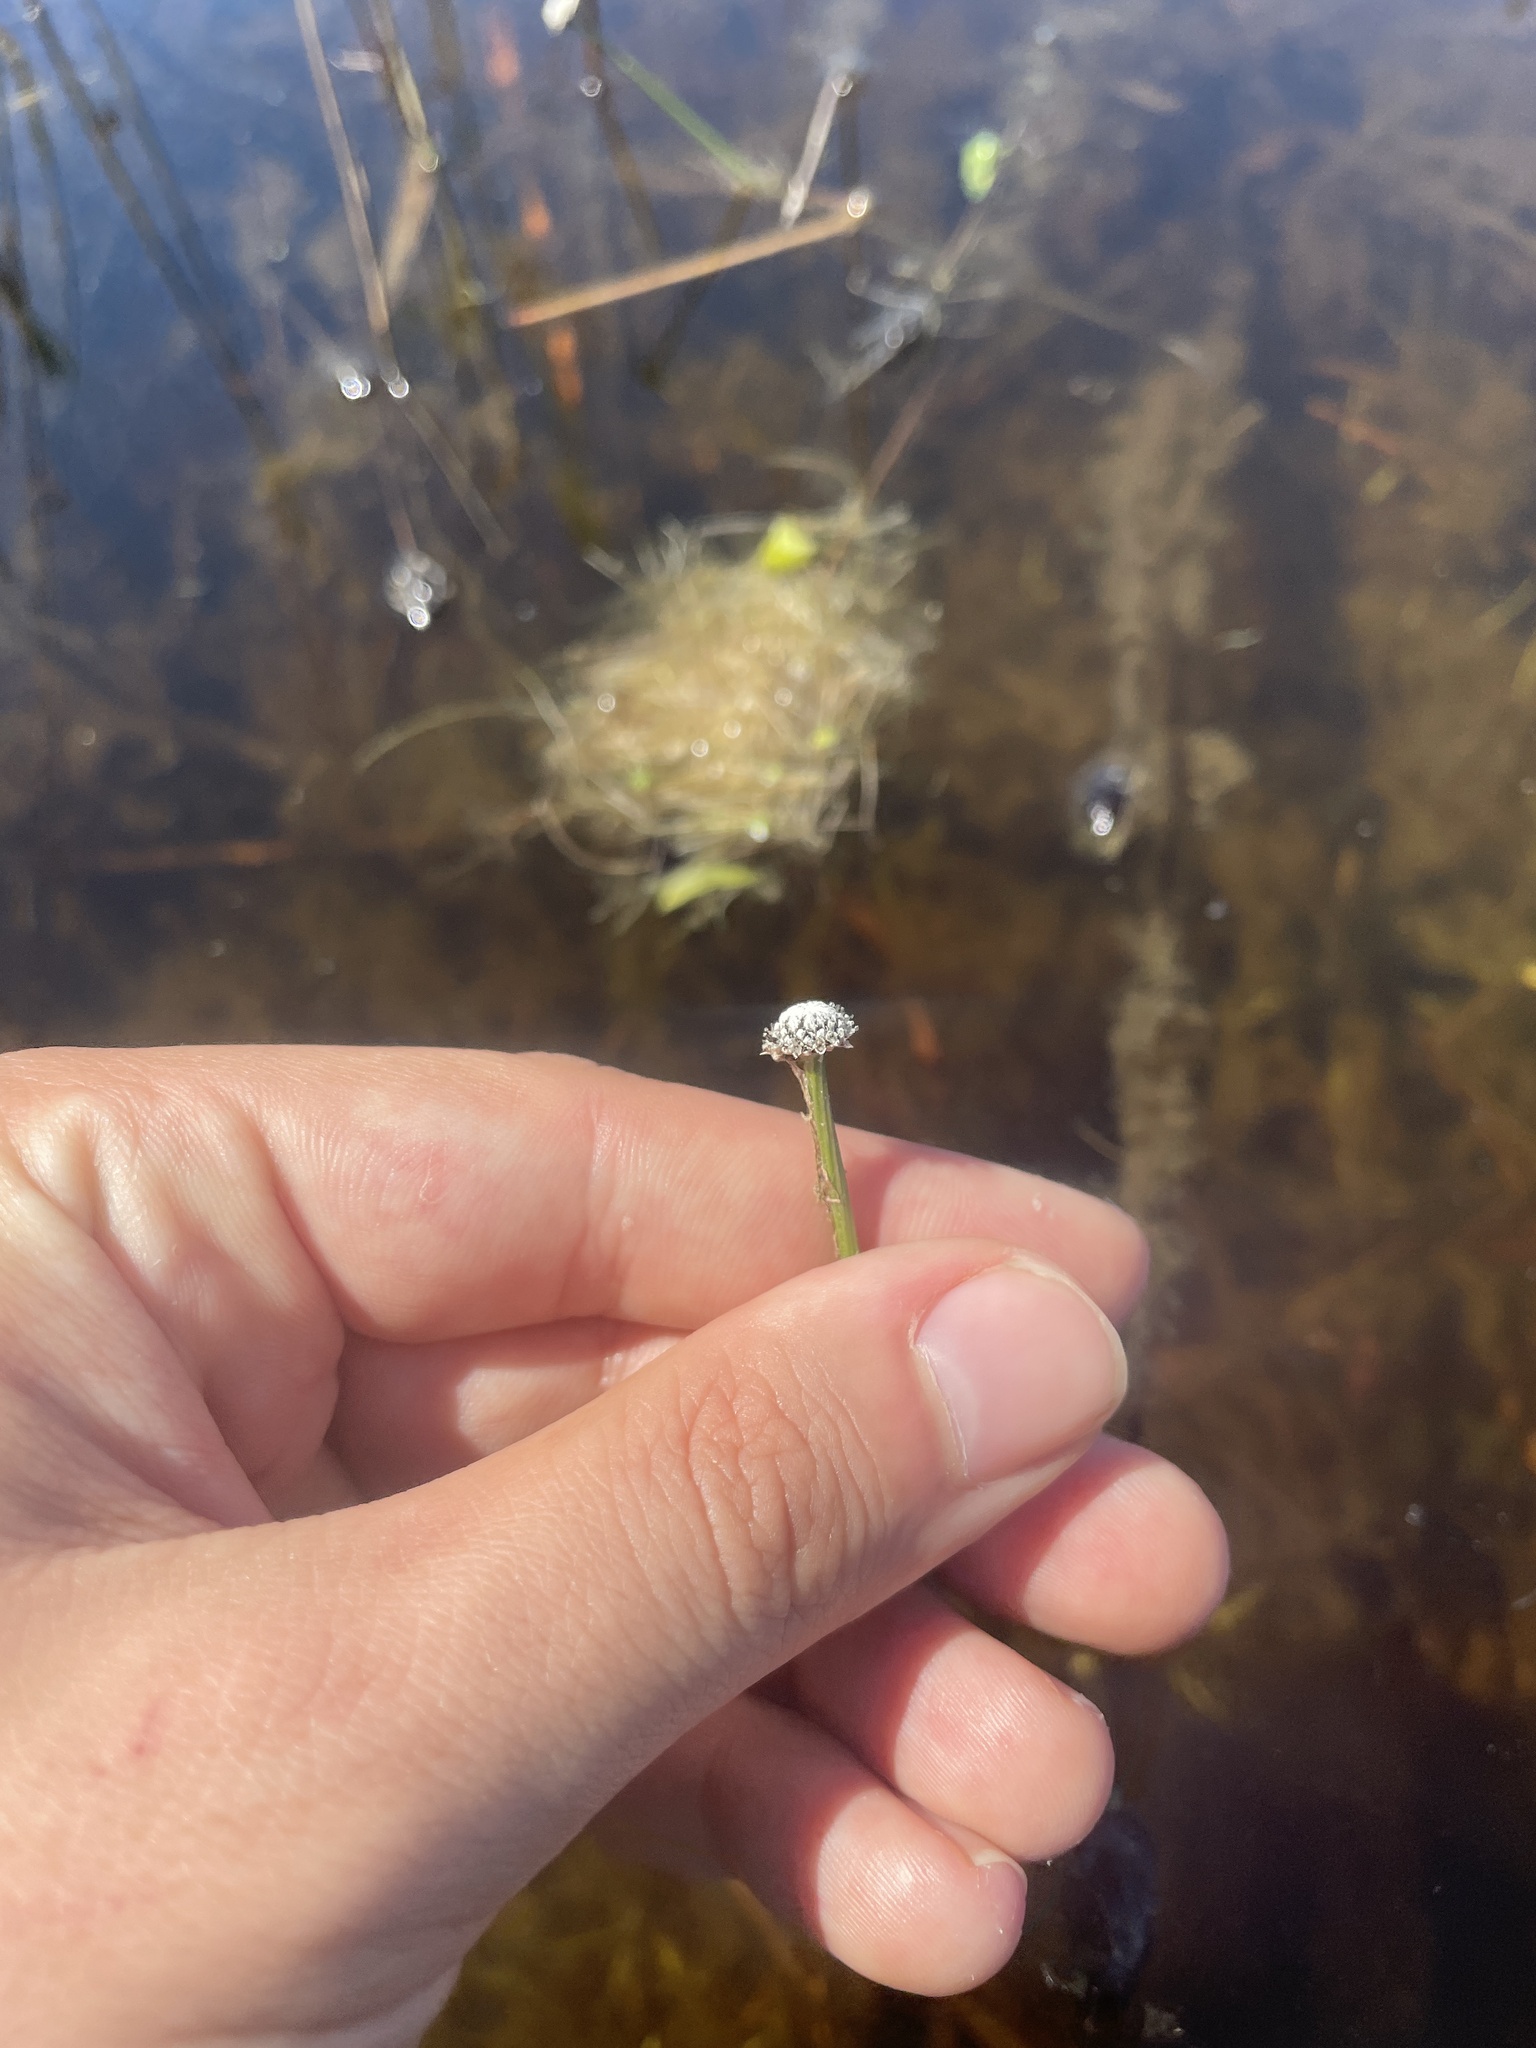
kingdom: Plantae
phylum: Tracheophyta
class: Liliopsida
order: Poales
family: Eriocaulaceae
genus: Eriocaulon
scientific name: Eriocaulon aquaticum
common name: Pipewort
